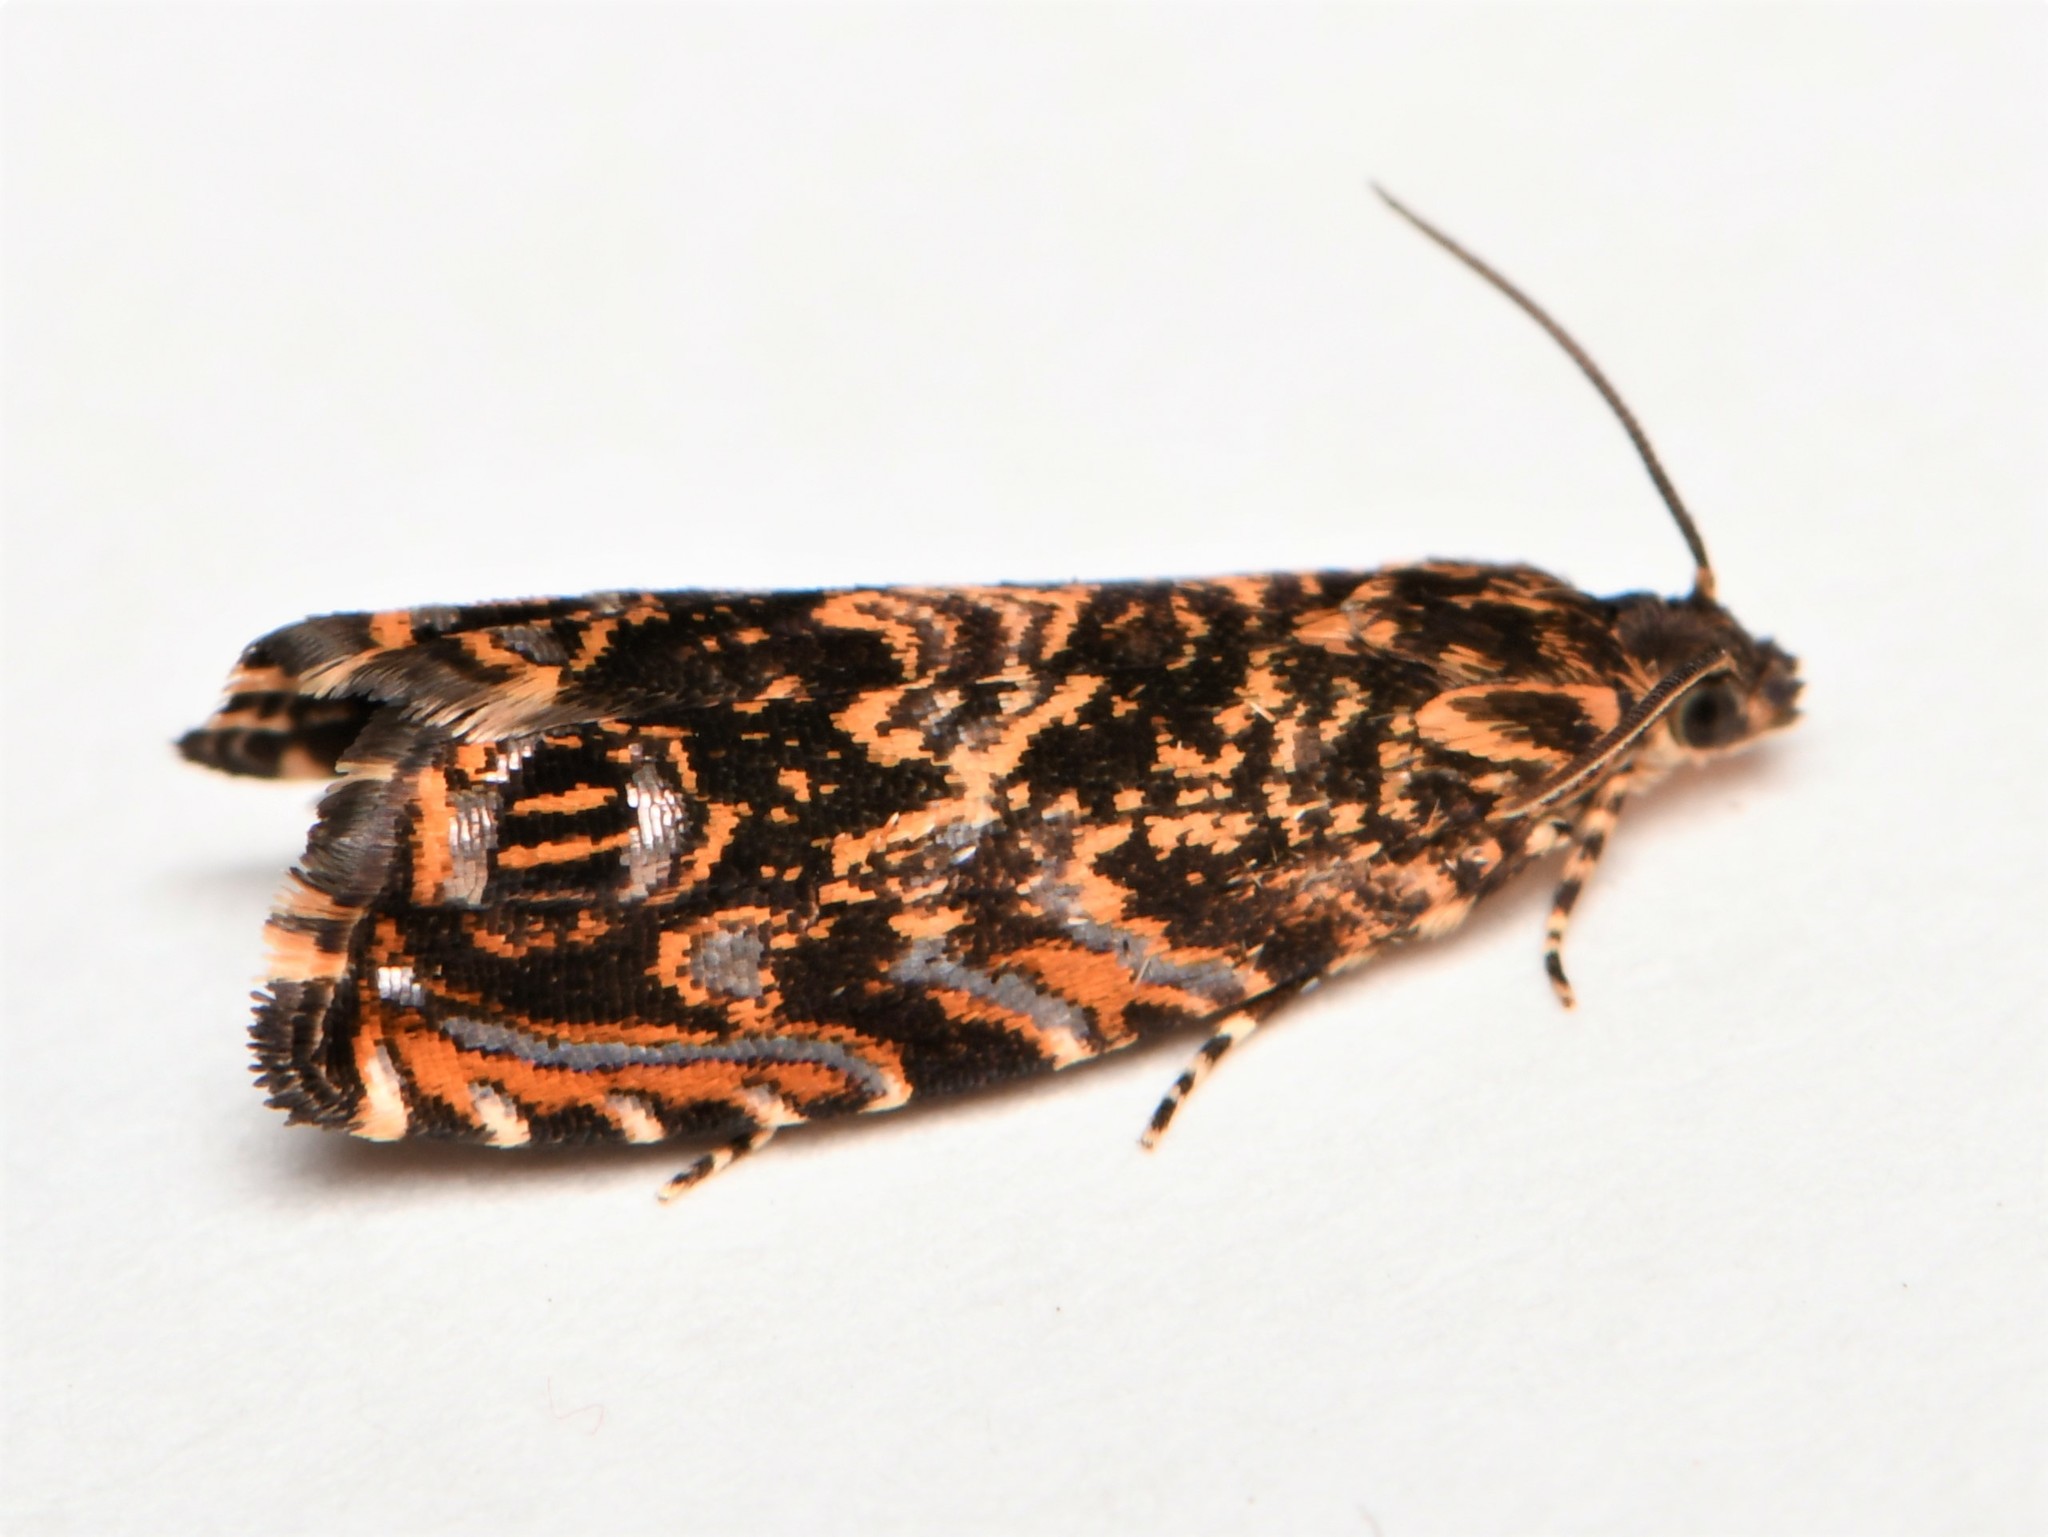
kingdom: Animalia
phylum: Arthropoda
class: Insecta
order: Lepidoptera
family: Tortricidae
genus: Enarmonia
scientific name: Enarmonia formosana
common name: Cherry bark tortrix
